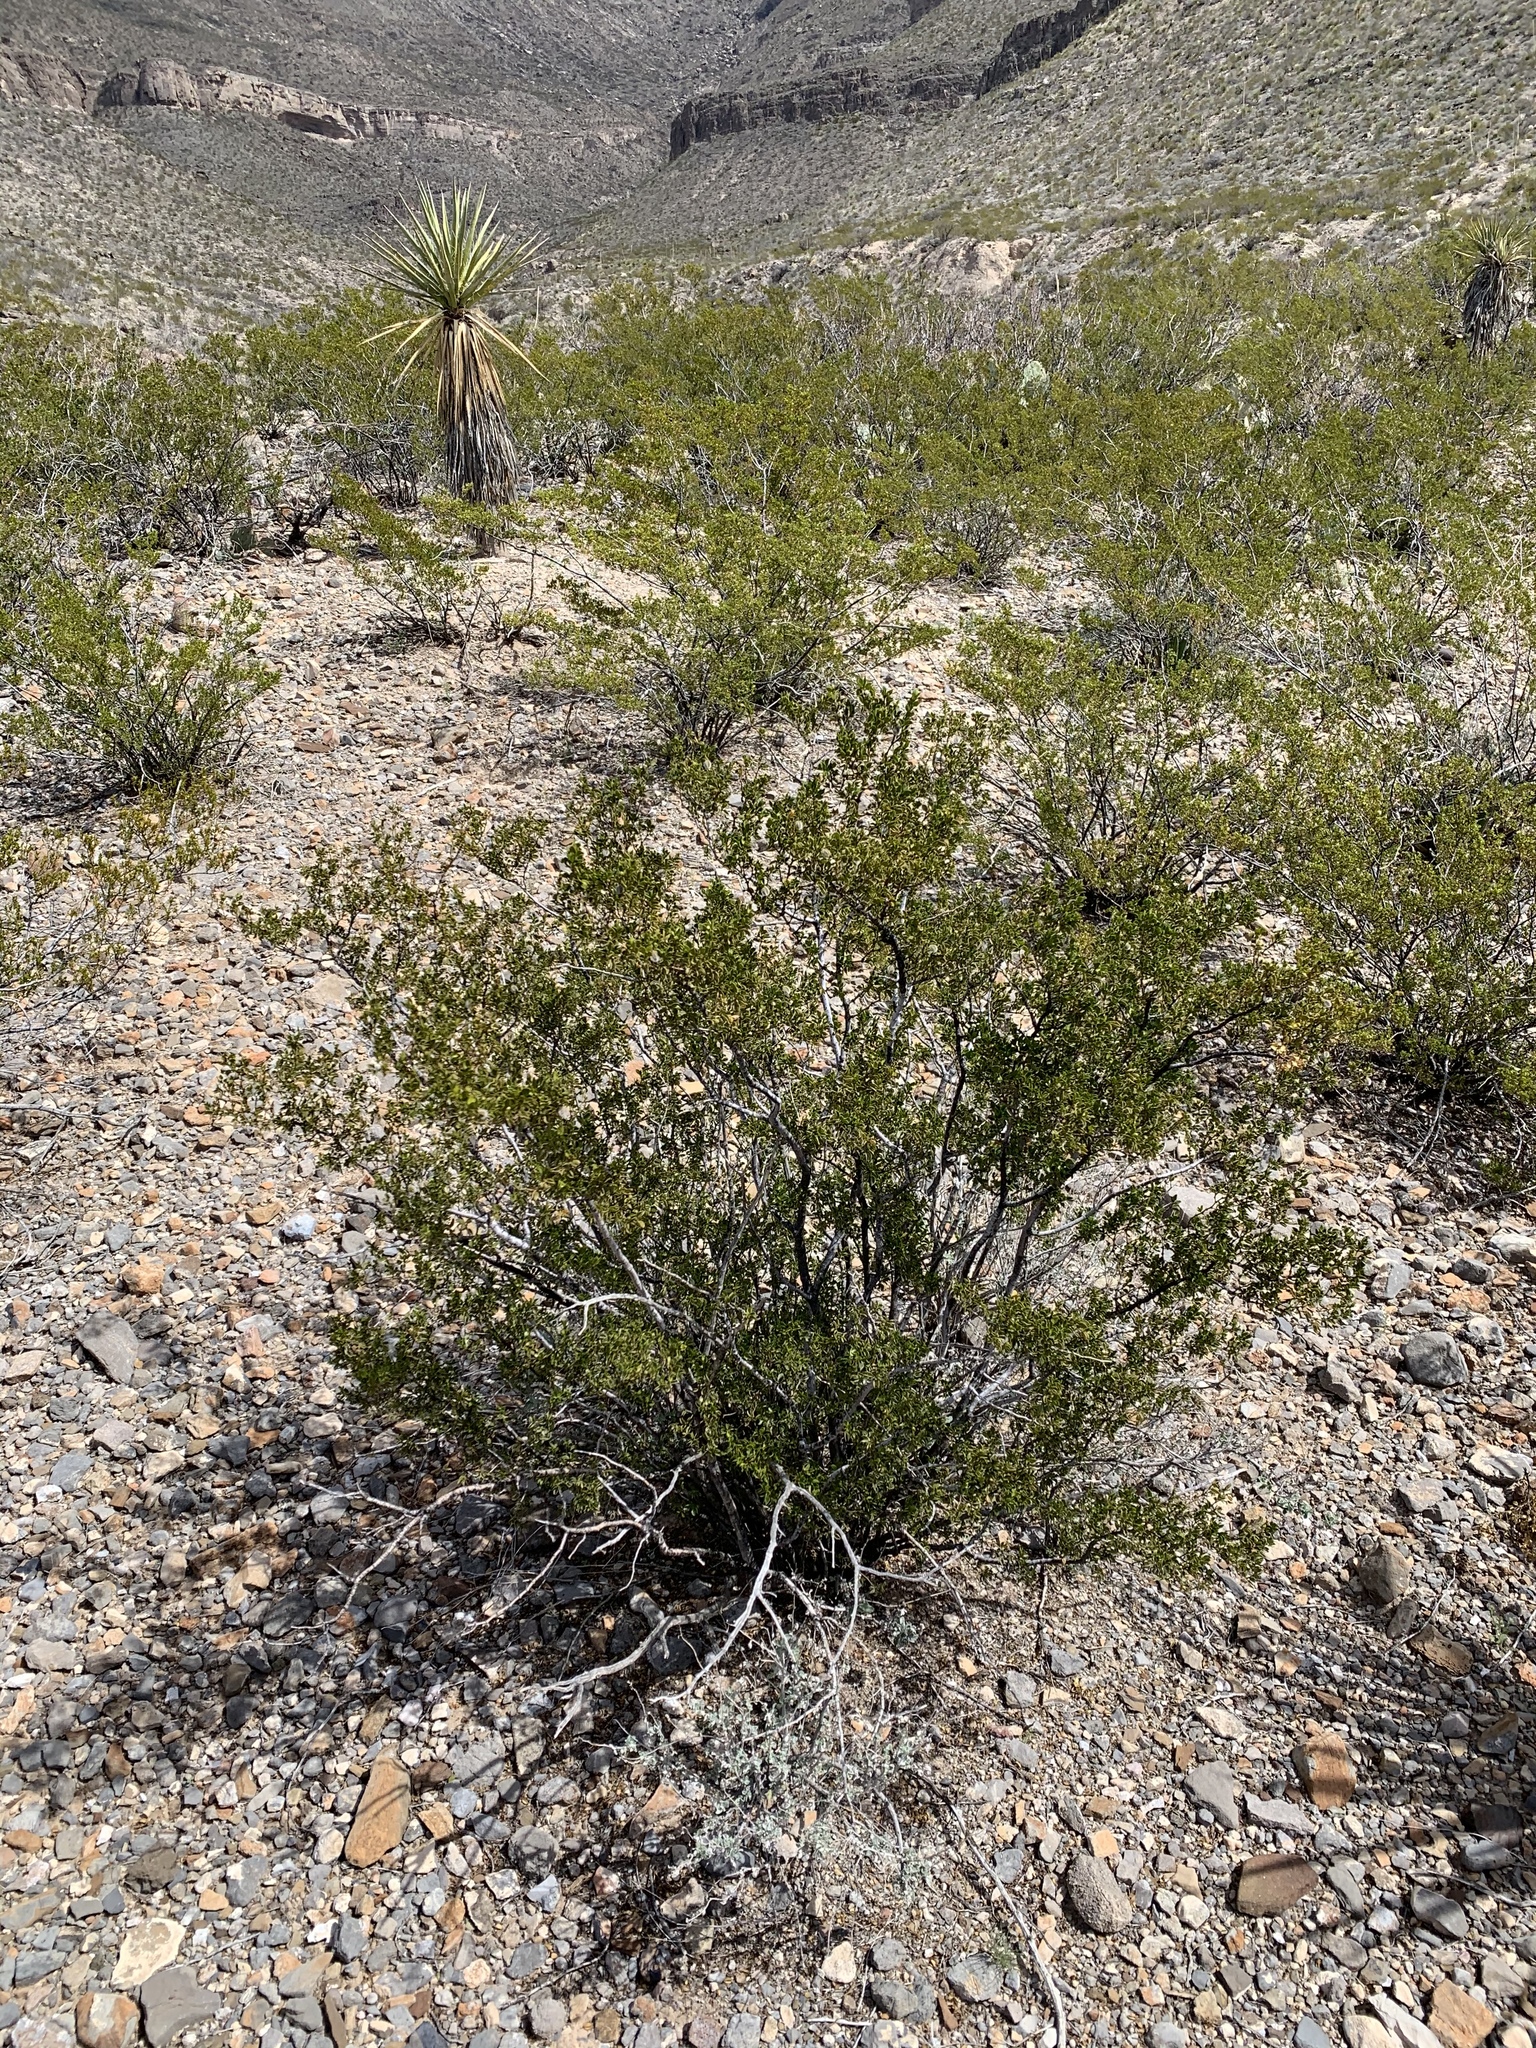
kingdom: Plantae
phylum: Tracheophyta
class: Magnoliopsida
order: Zygophyllales
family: Zygophyllaceae
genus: Larrea
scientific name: Larrea tridentata
